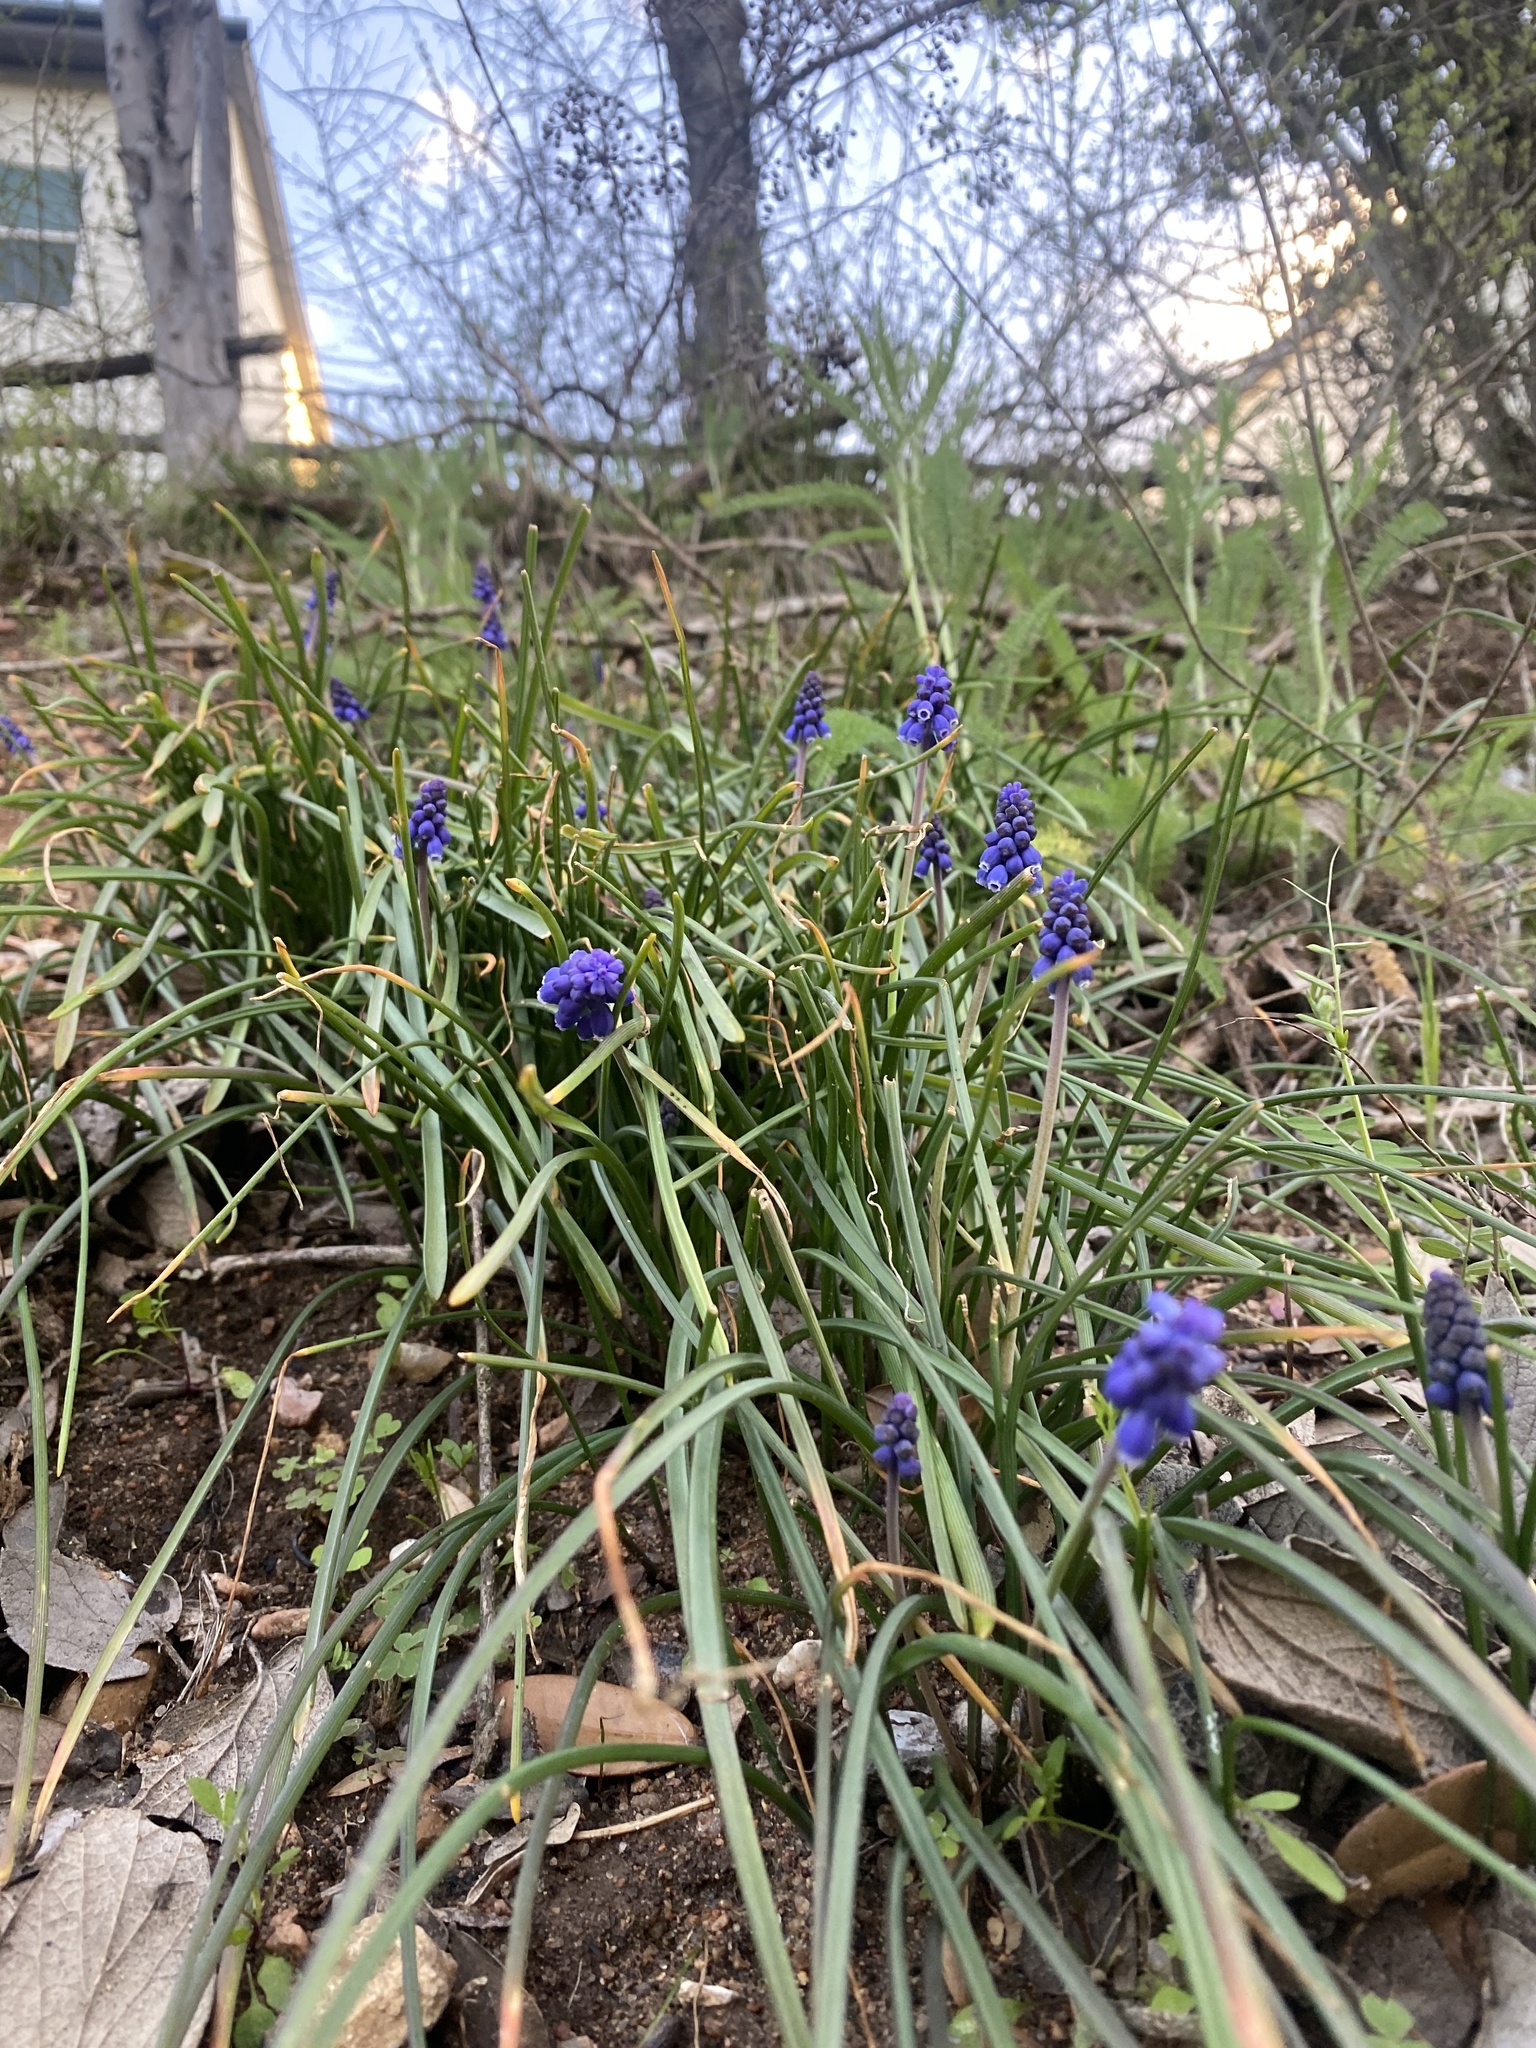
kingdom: Plantae
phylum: Tracheophyta
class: Liliopsida
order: Asparagales
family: Asparagaceae
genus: Muscari
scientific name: Muscari neglectum
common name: Grape-hyacinth
